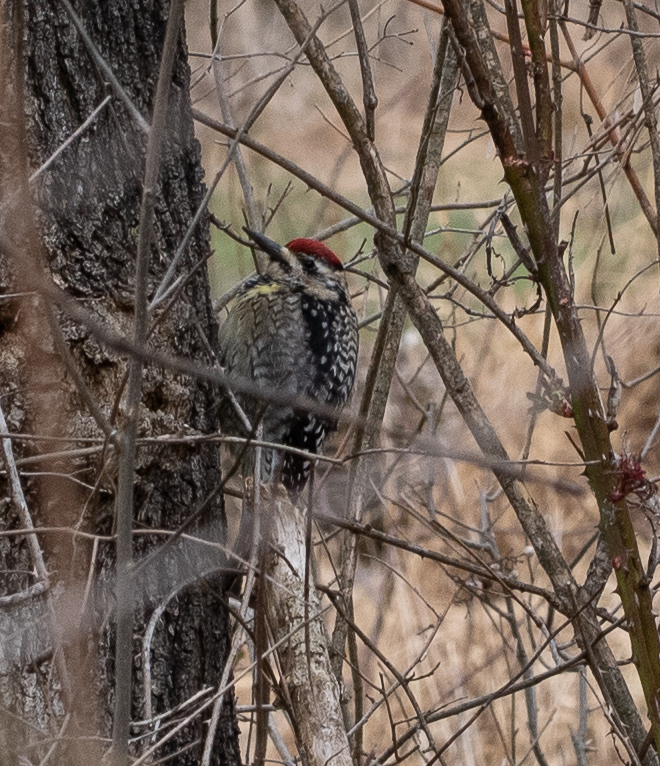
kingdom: Animalia
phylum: Chordata
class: Aves
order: Piciformes
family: Picidae
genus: Sphyrapicus
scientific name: Sphyrapicus varius
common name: Yellow-bellied sapsucker
